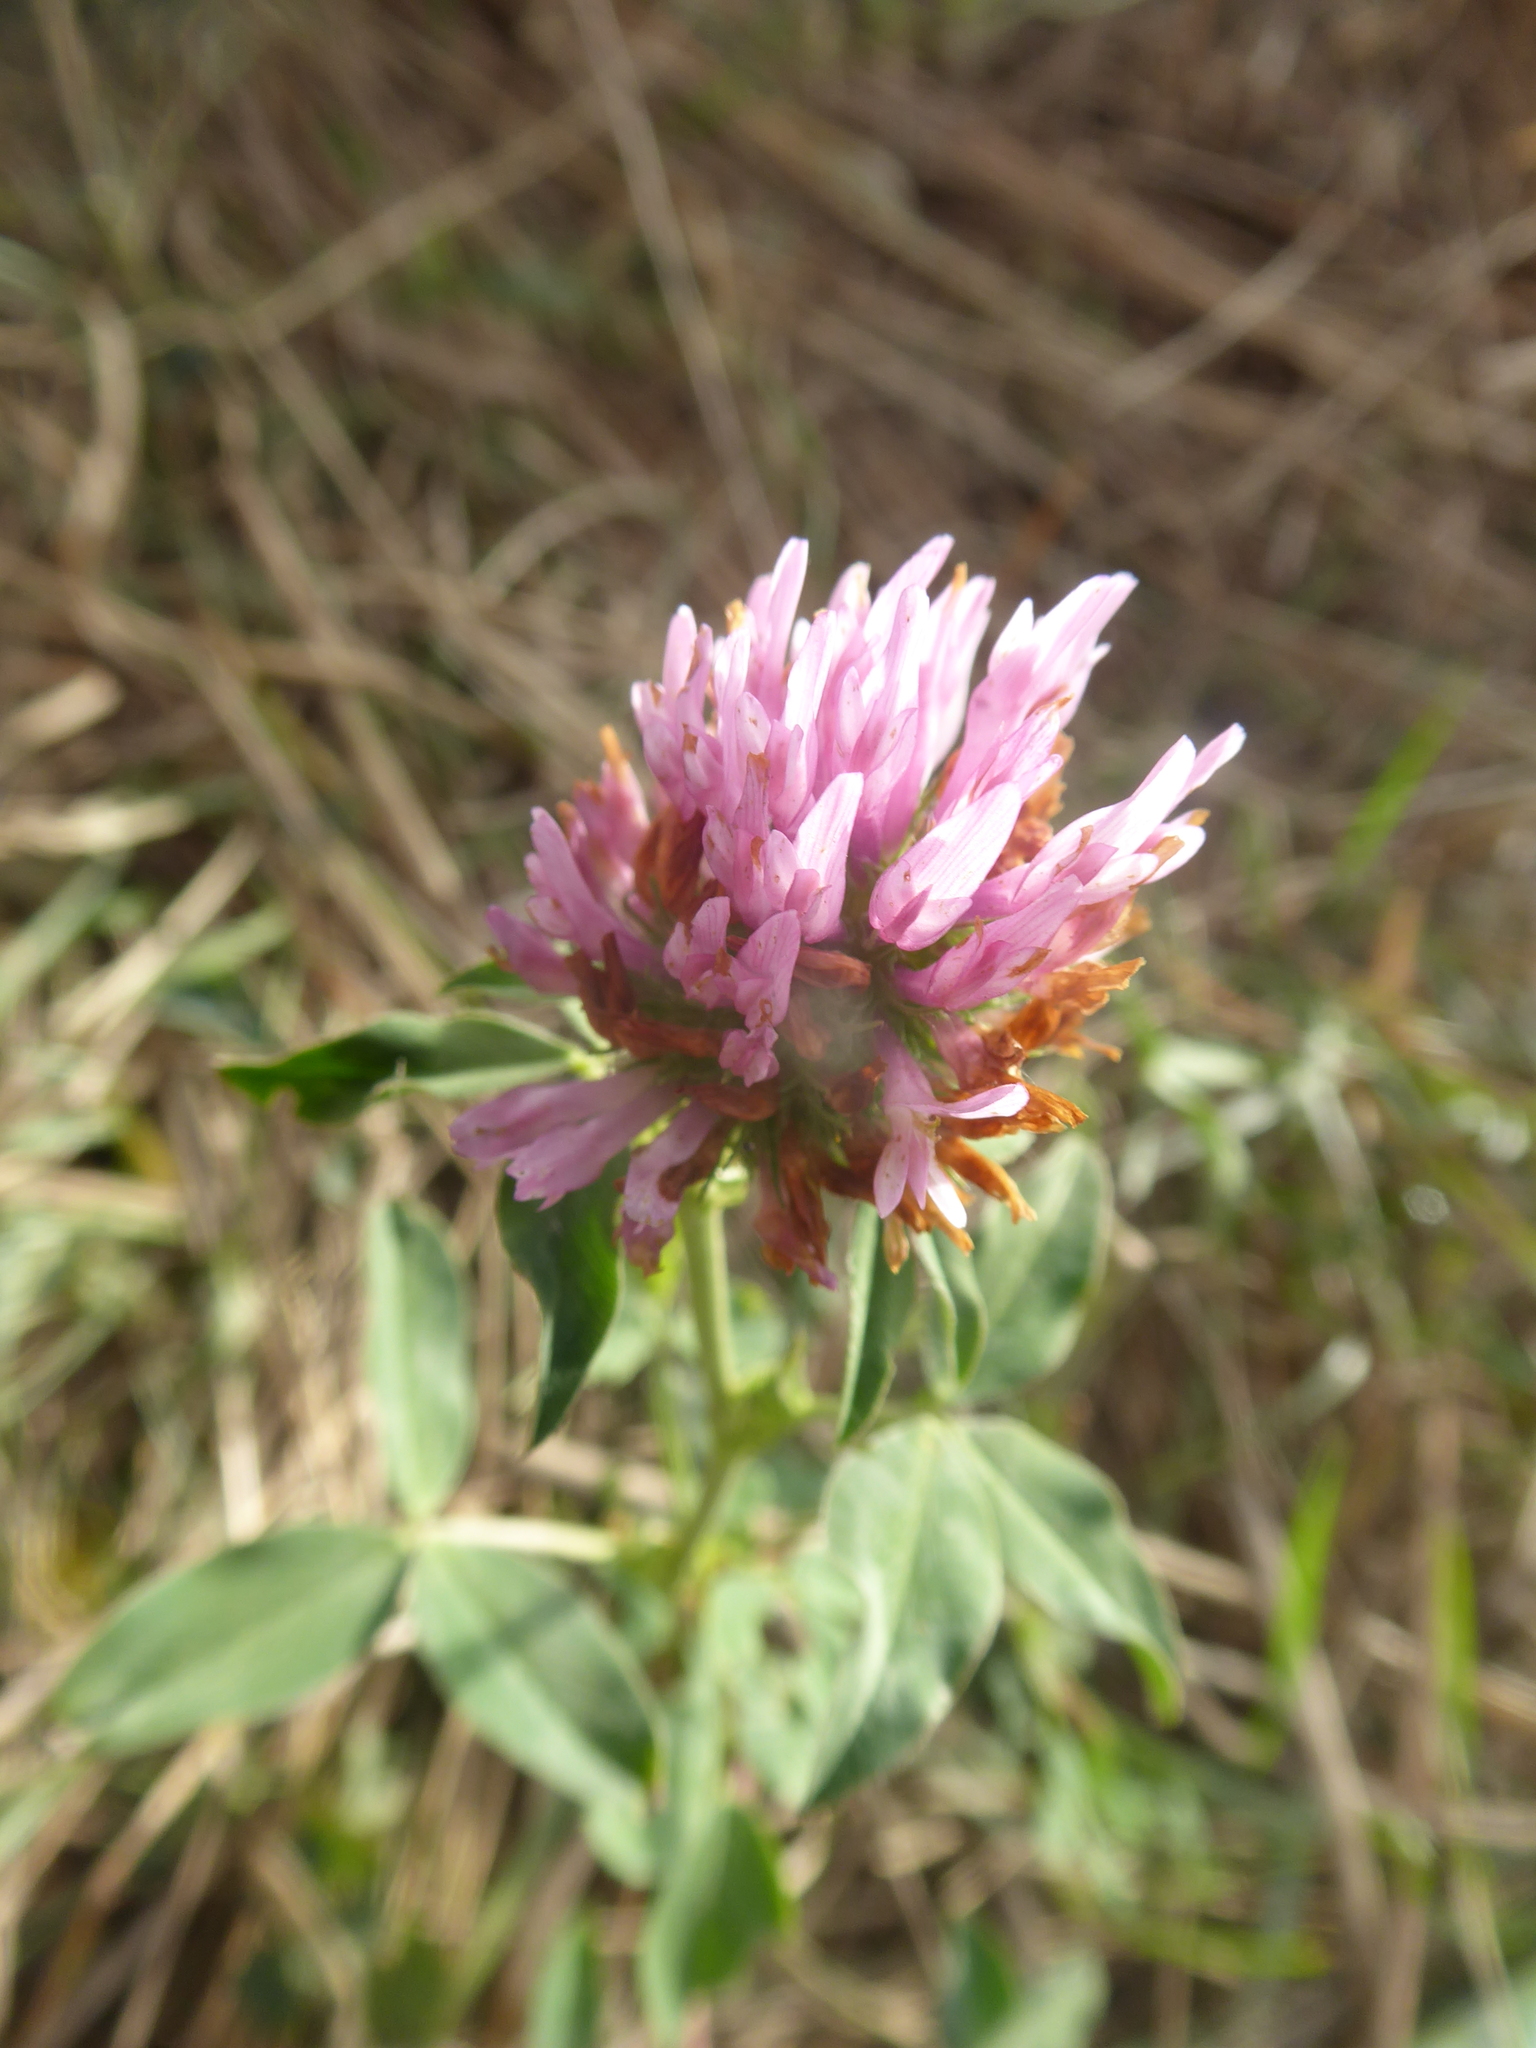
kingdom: Plantae
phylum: Tracheophyta
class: Magnoliopsida
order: Fabales
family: Fabaceae
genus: Trifolium
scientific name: Trifolium pratense
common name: Red clover
